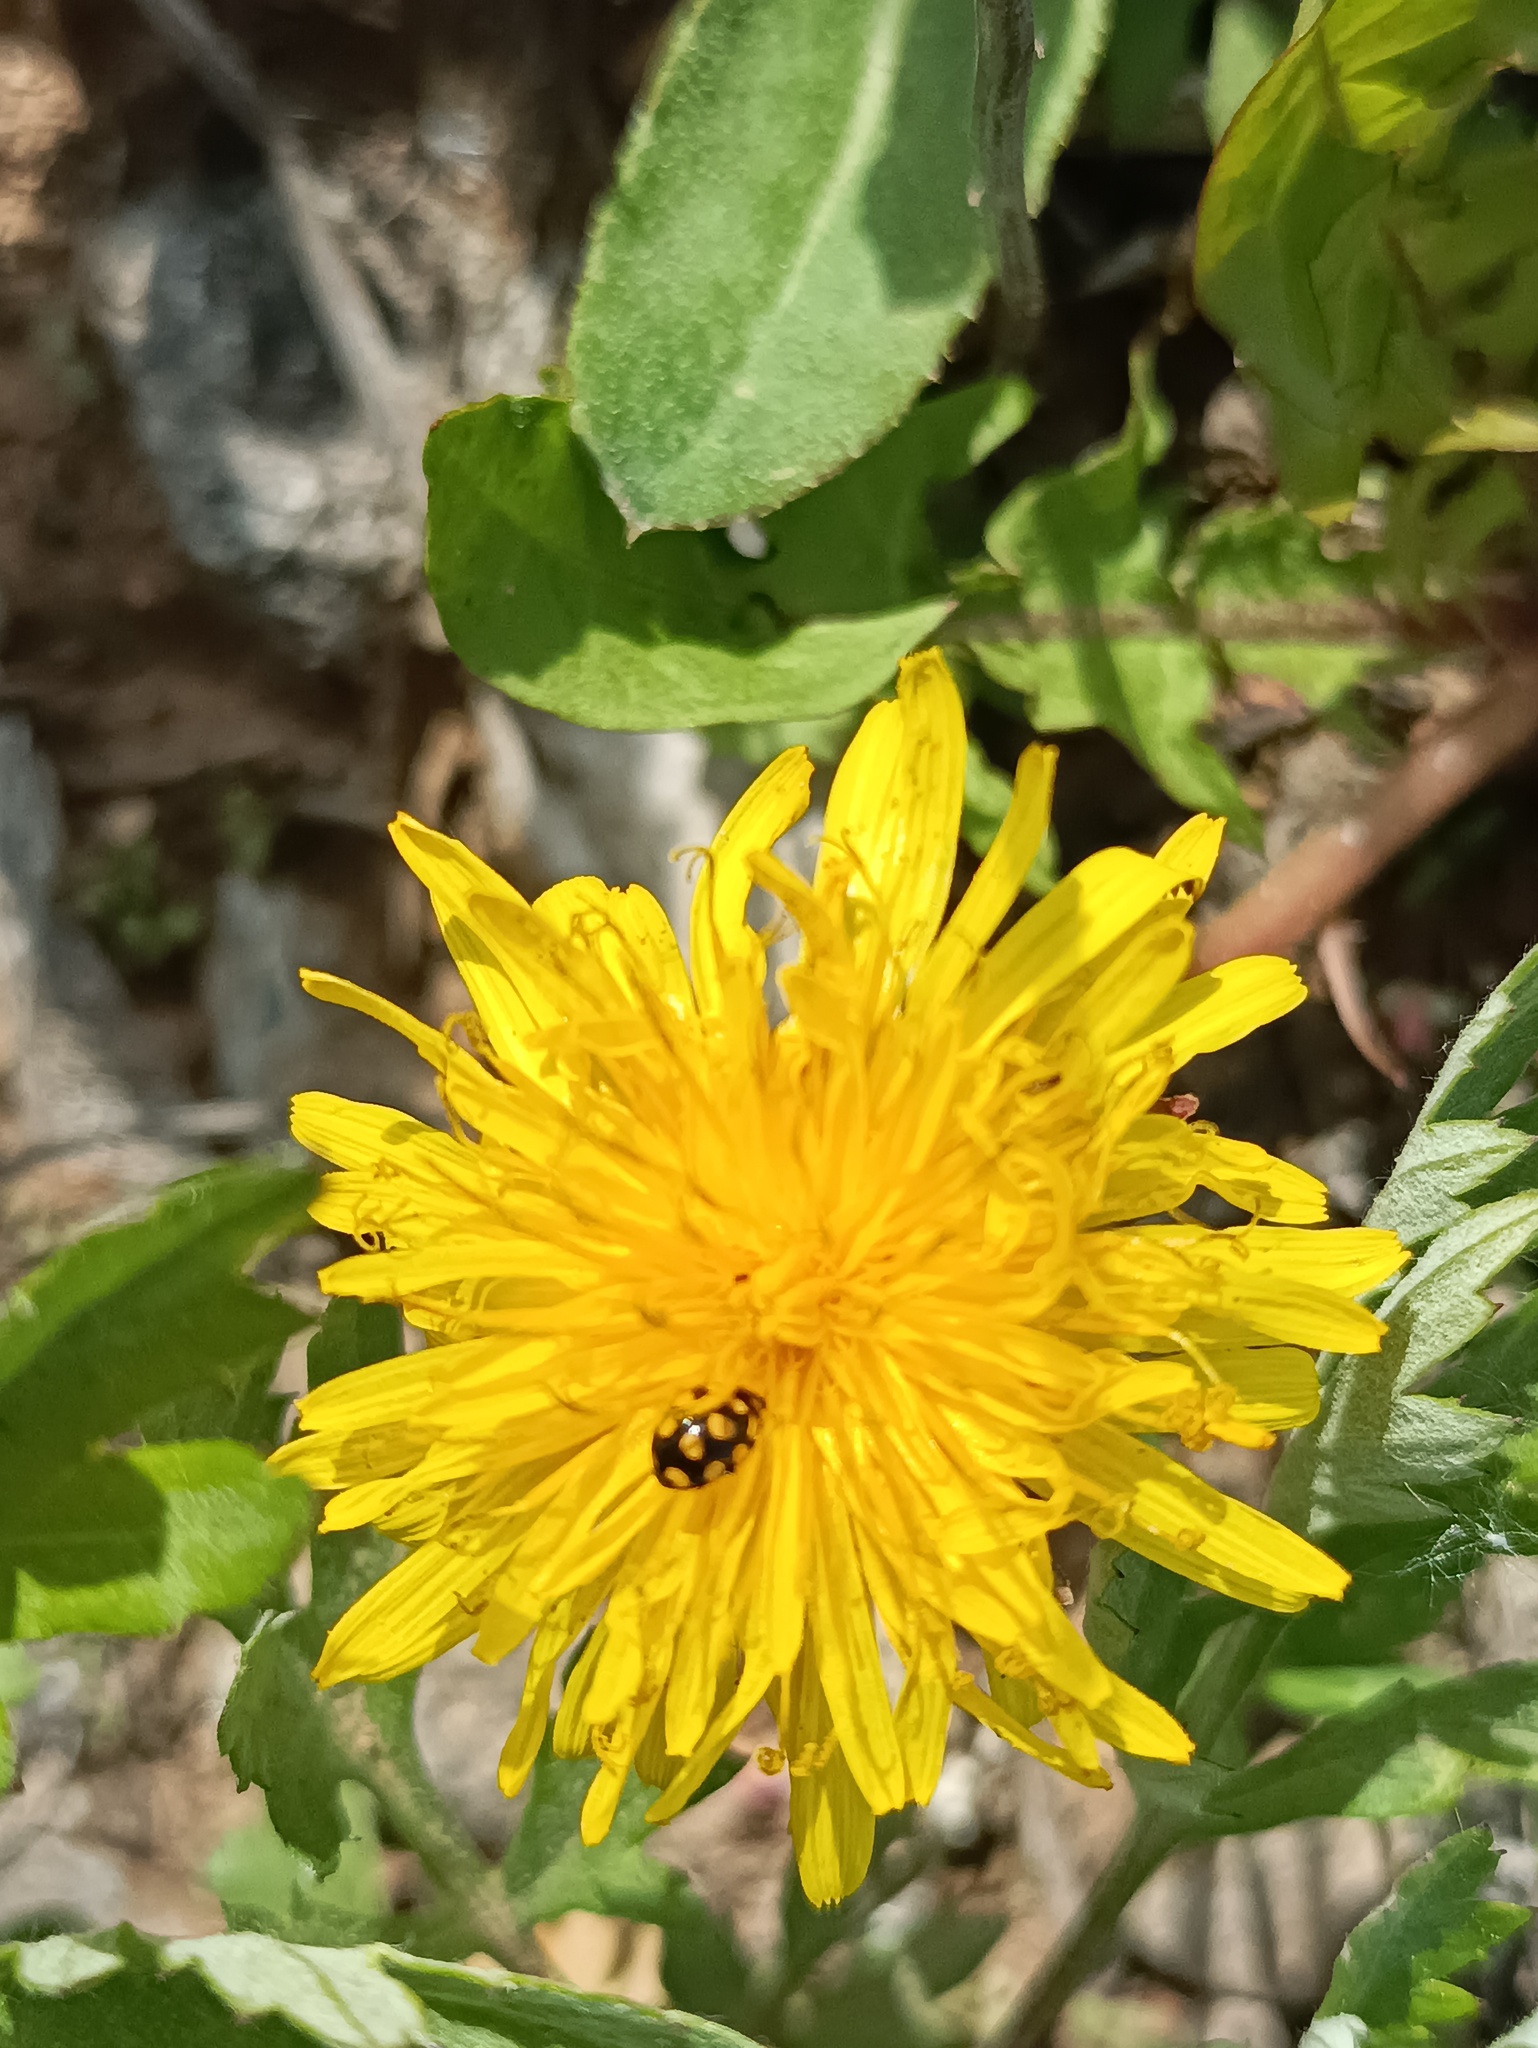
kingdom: Animalia
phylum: Arthropoda
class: Insecta
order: Coleoptera
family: Coccinellidae
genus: Coccinula
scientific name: Coccinula quatuordecimpustulata
